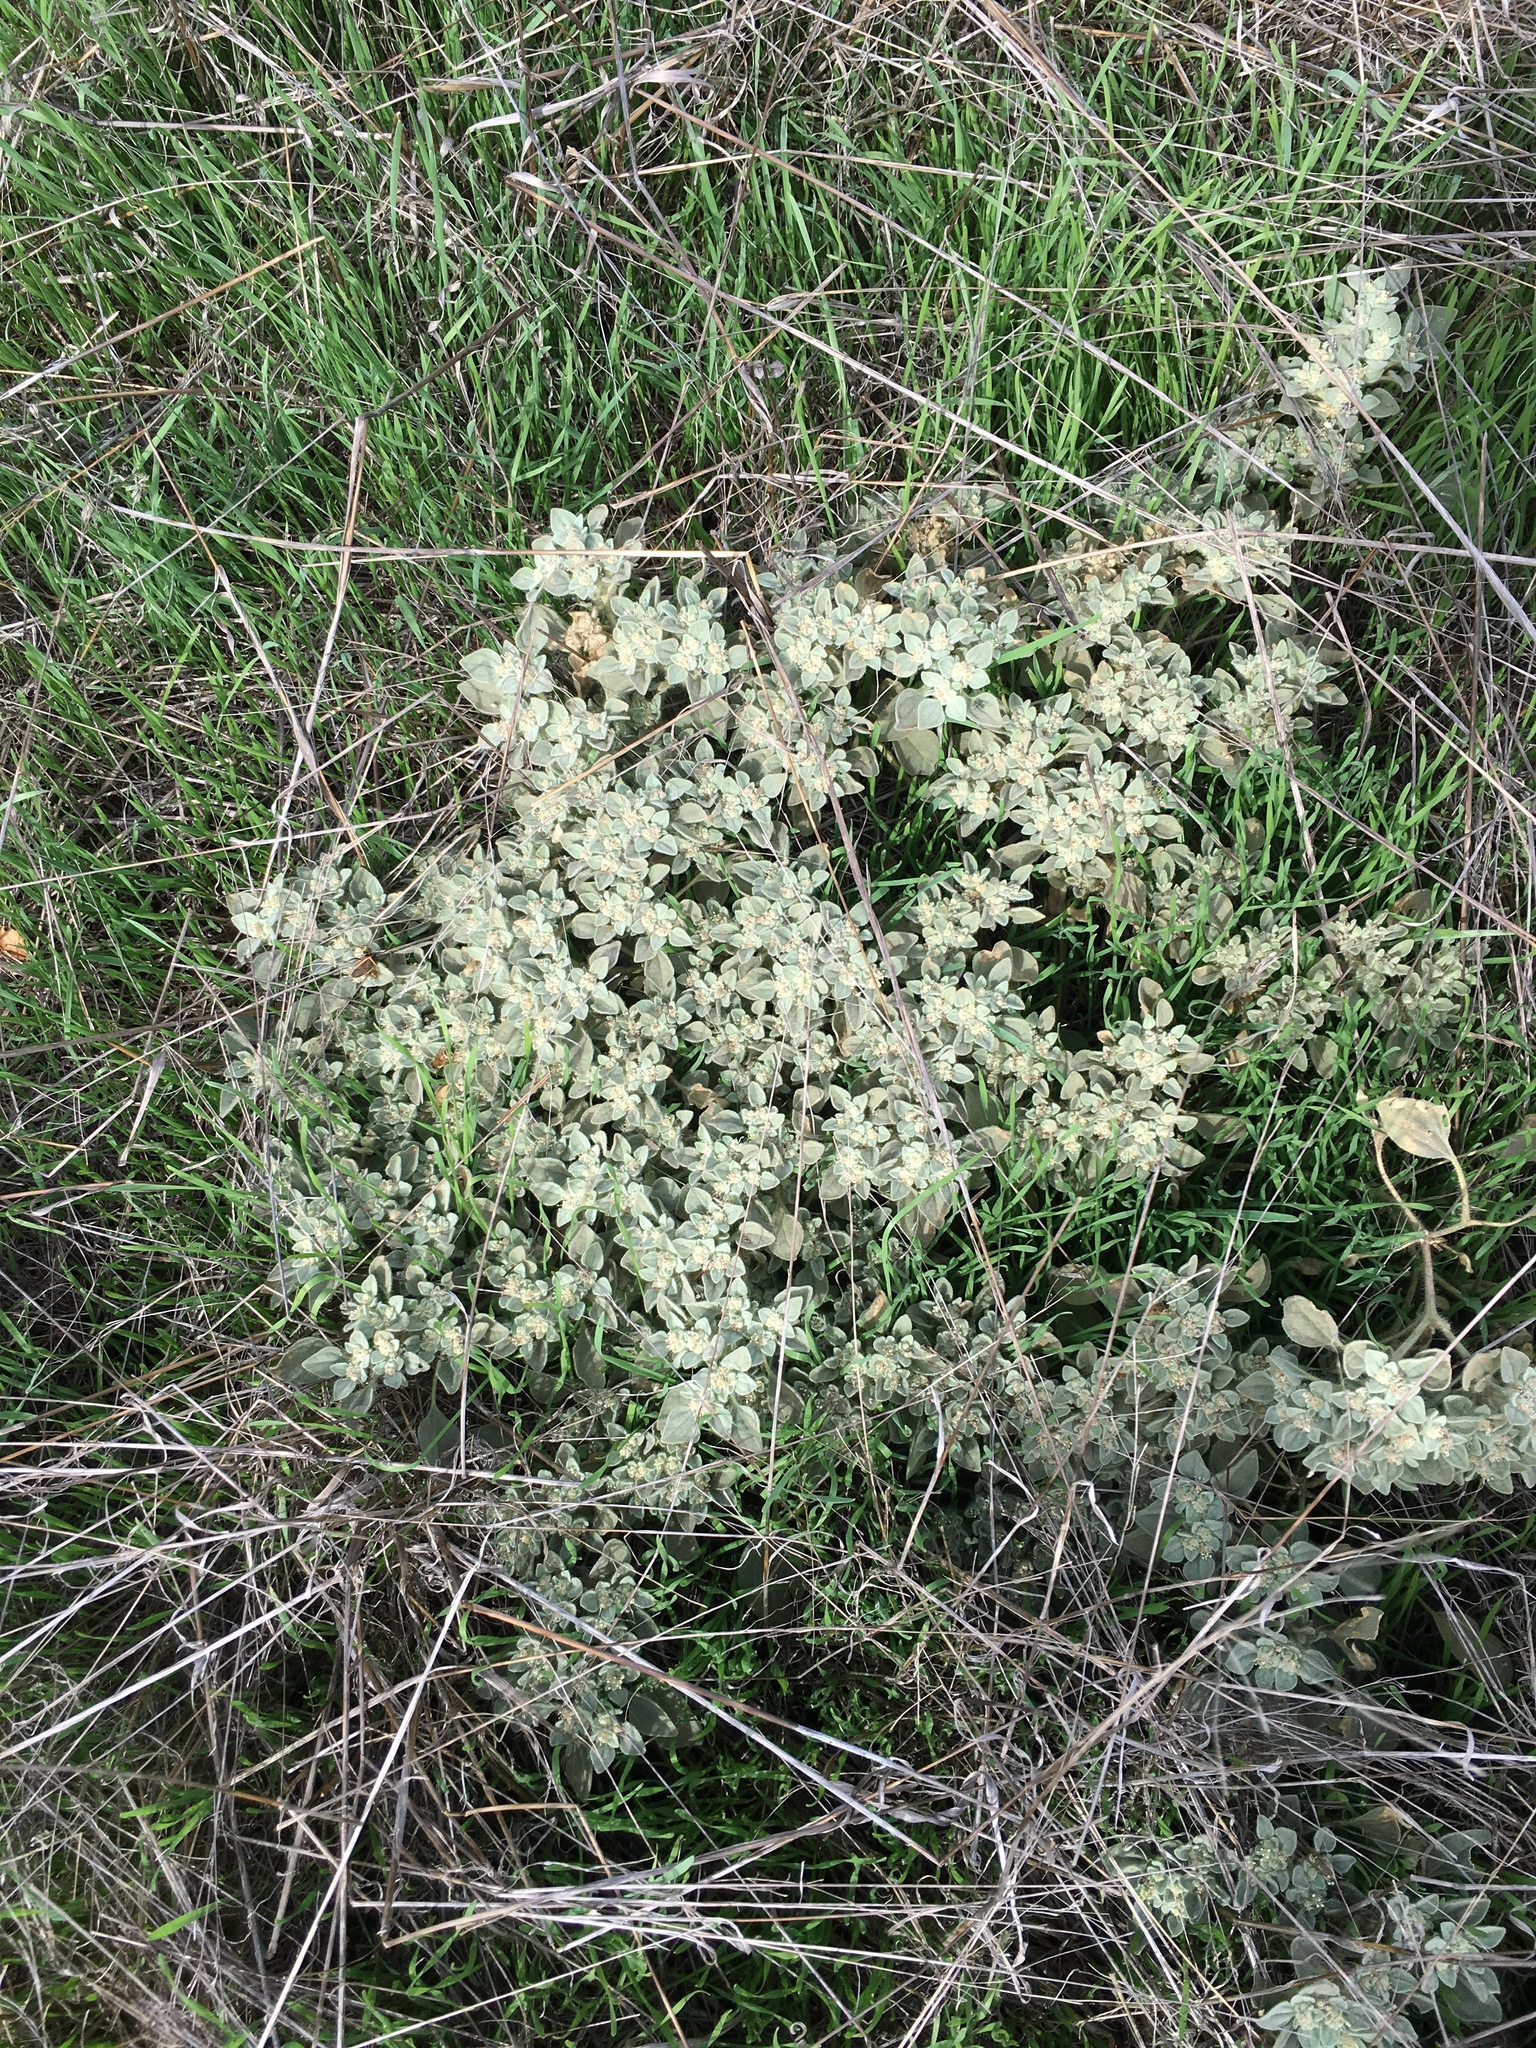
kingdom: Plantae
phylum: Tracheophyta
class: Magnoliopsida
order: Malpighiales
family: Euphorbiaceae
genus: Croton
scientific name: Croton setiger
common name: Dove weed
